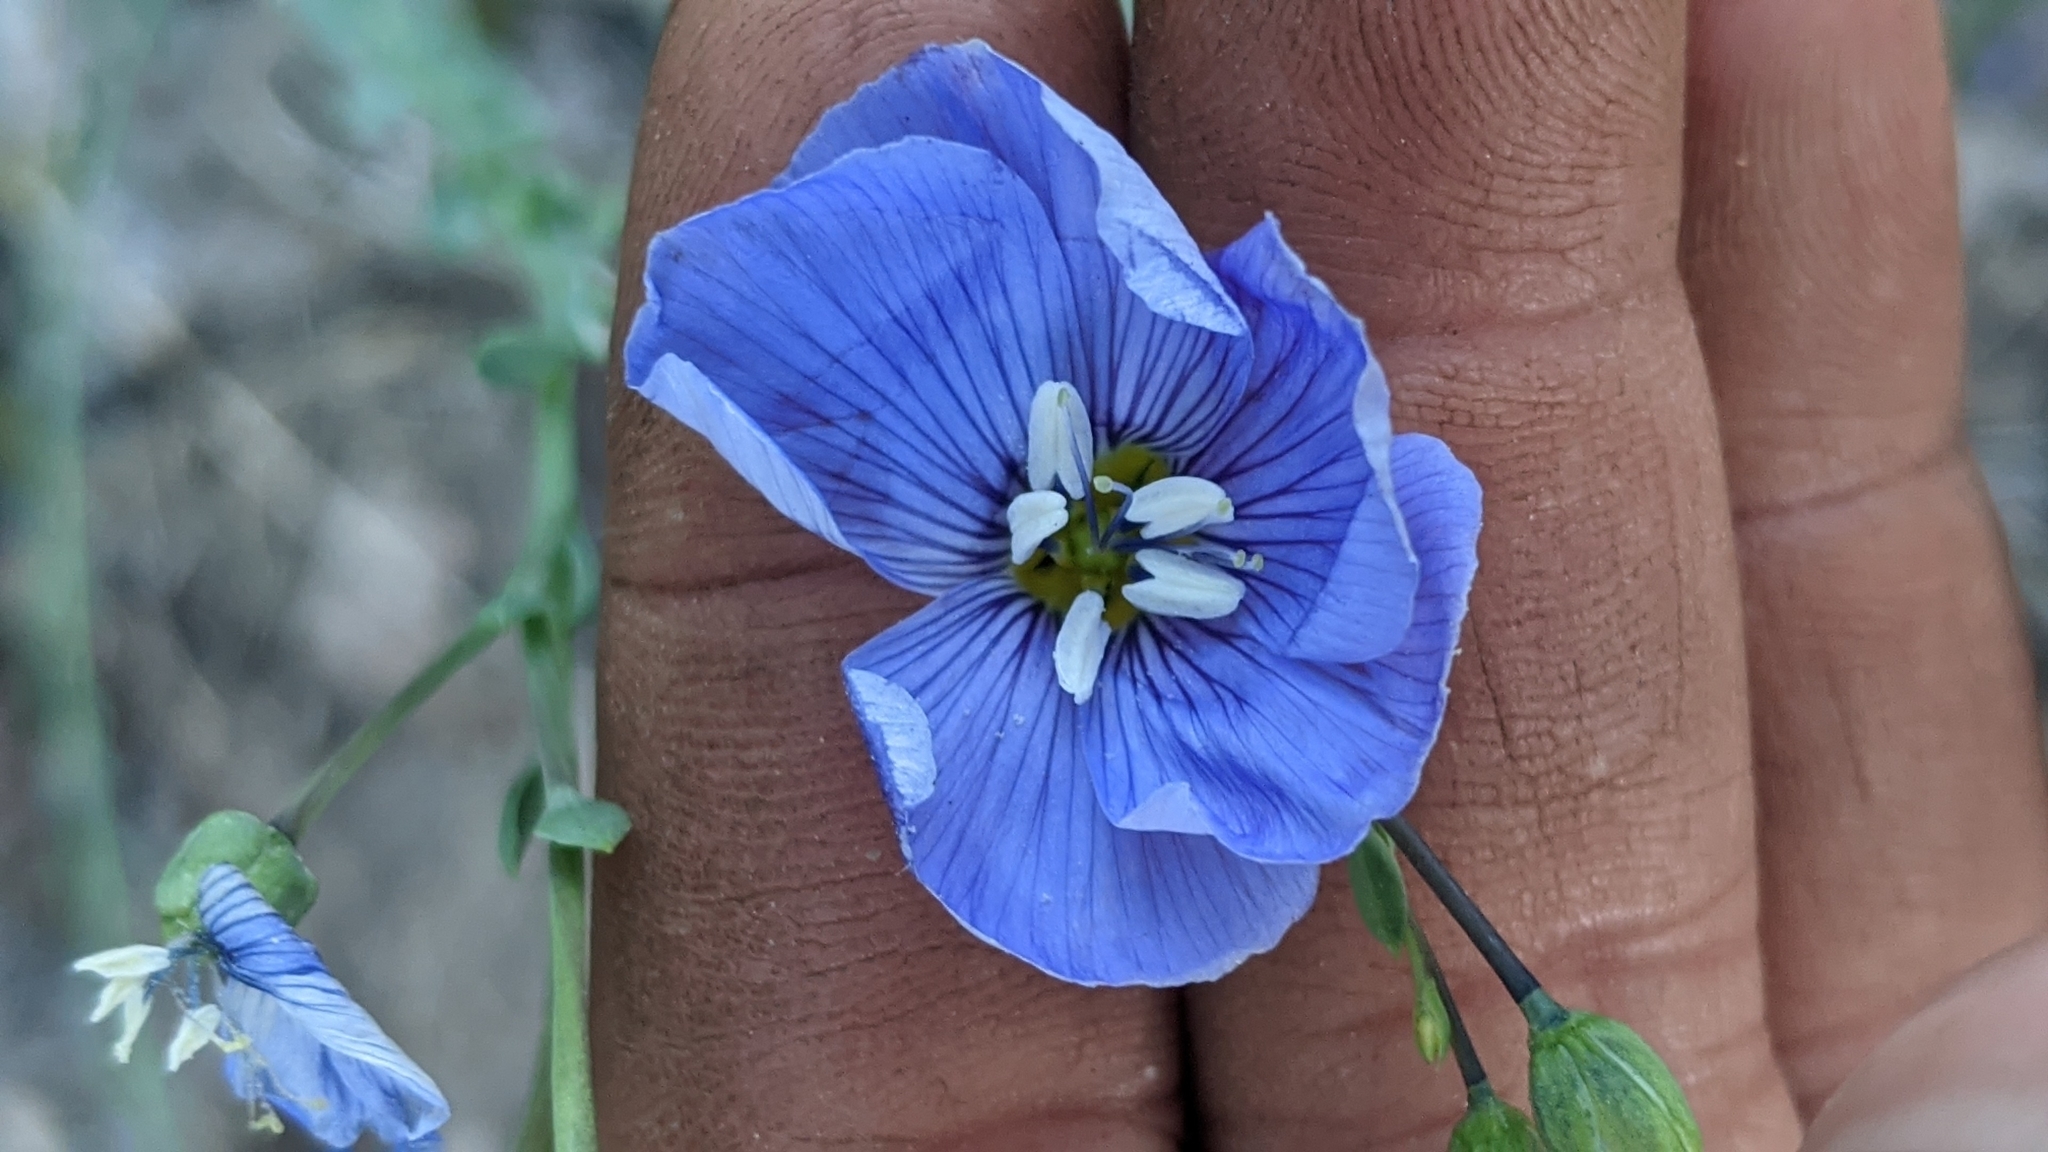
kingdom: Plantae
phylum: Tracheophyta
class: Magnoliopsida
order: Malpighiales
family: Linaceae
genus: Linum
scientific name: Linum lewisii
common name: Prairie flax
